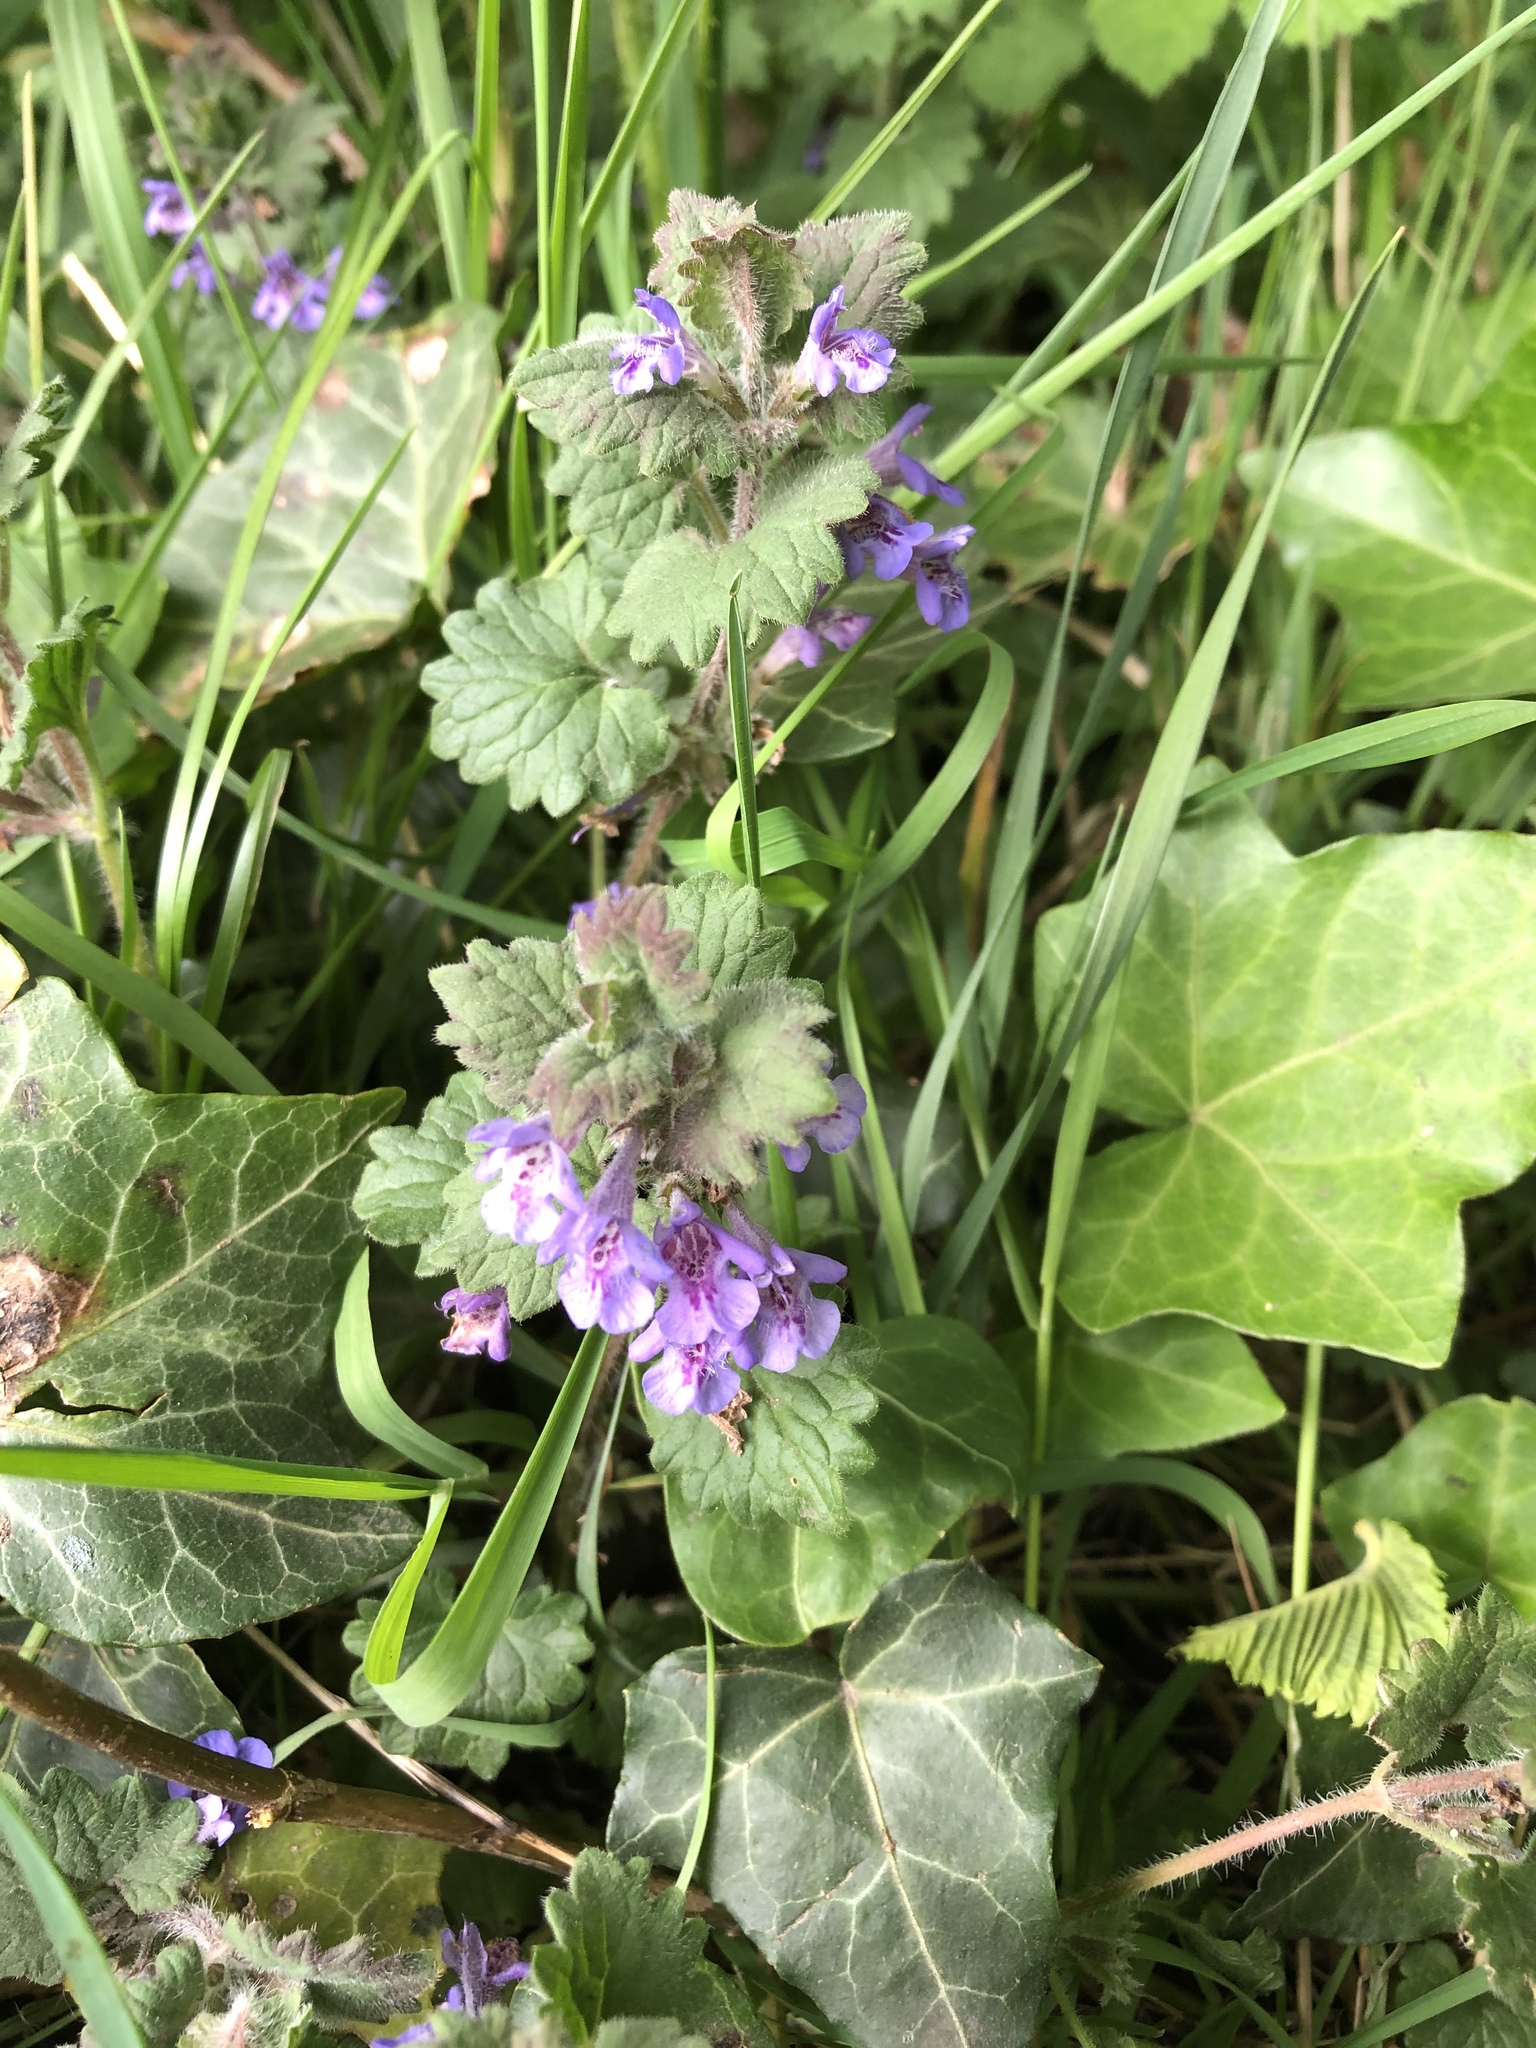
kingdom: Plantae
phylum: Tracheophyta
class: Magnoliopsida
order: Lamiales
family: Lamiaceae
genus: Glechoma
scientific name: Glechoma hederacea
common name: Ground ivy
